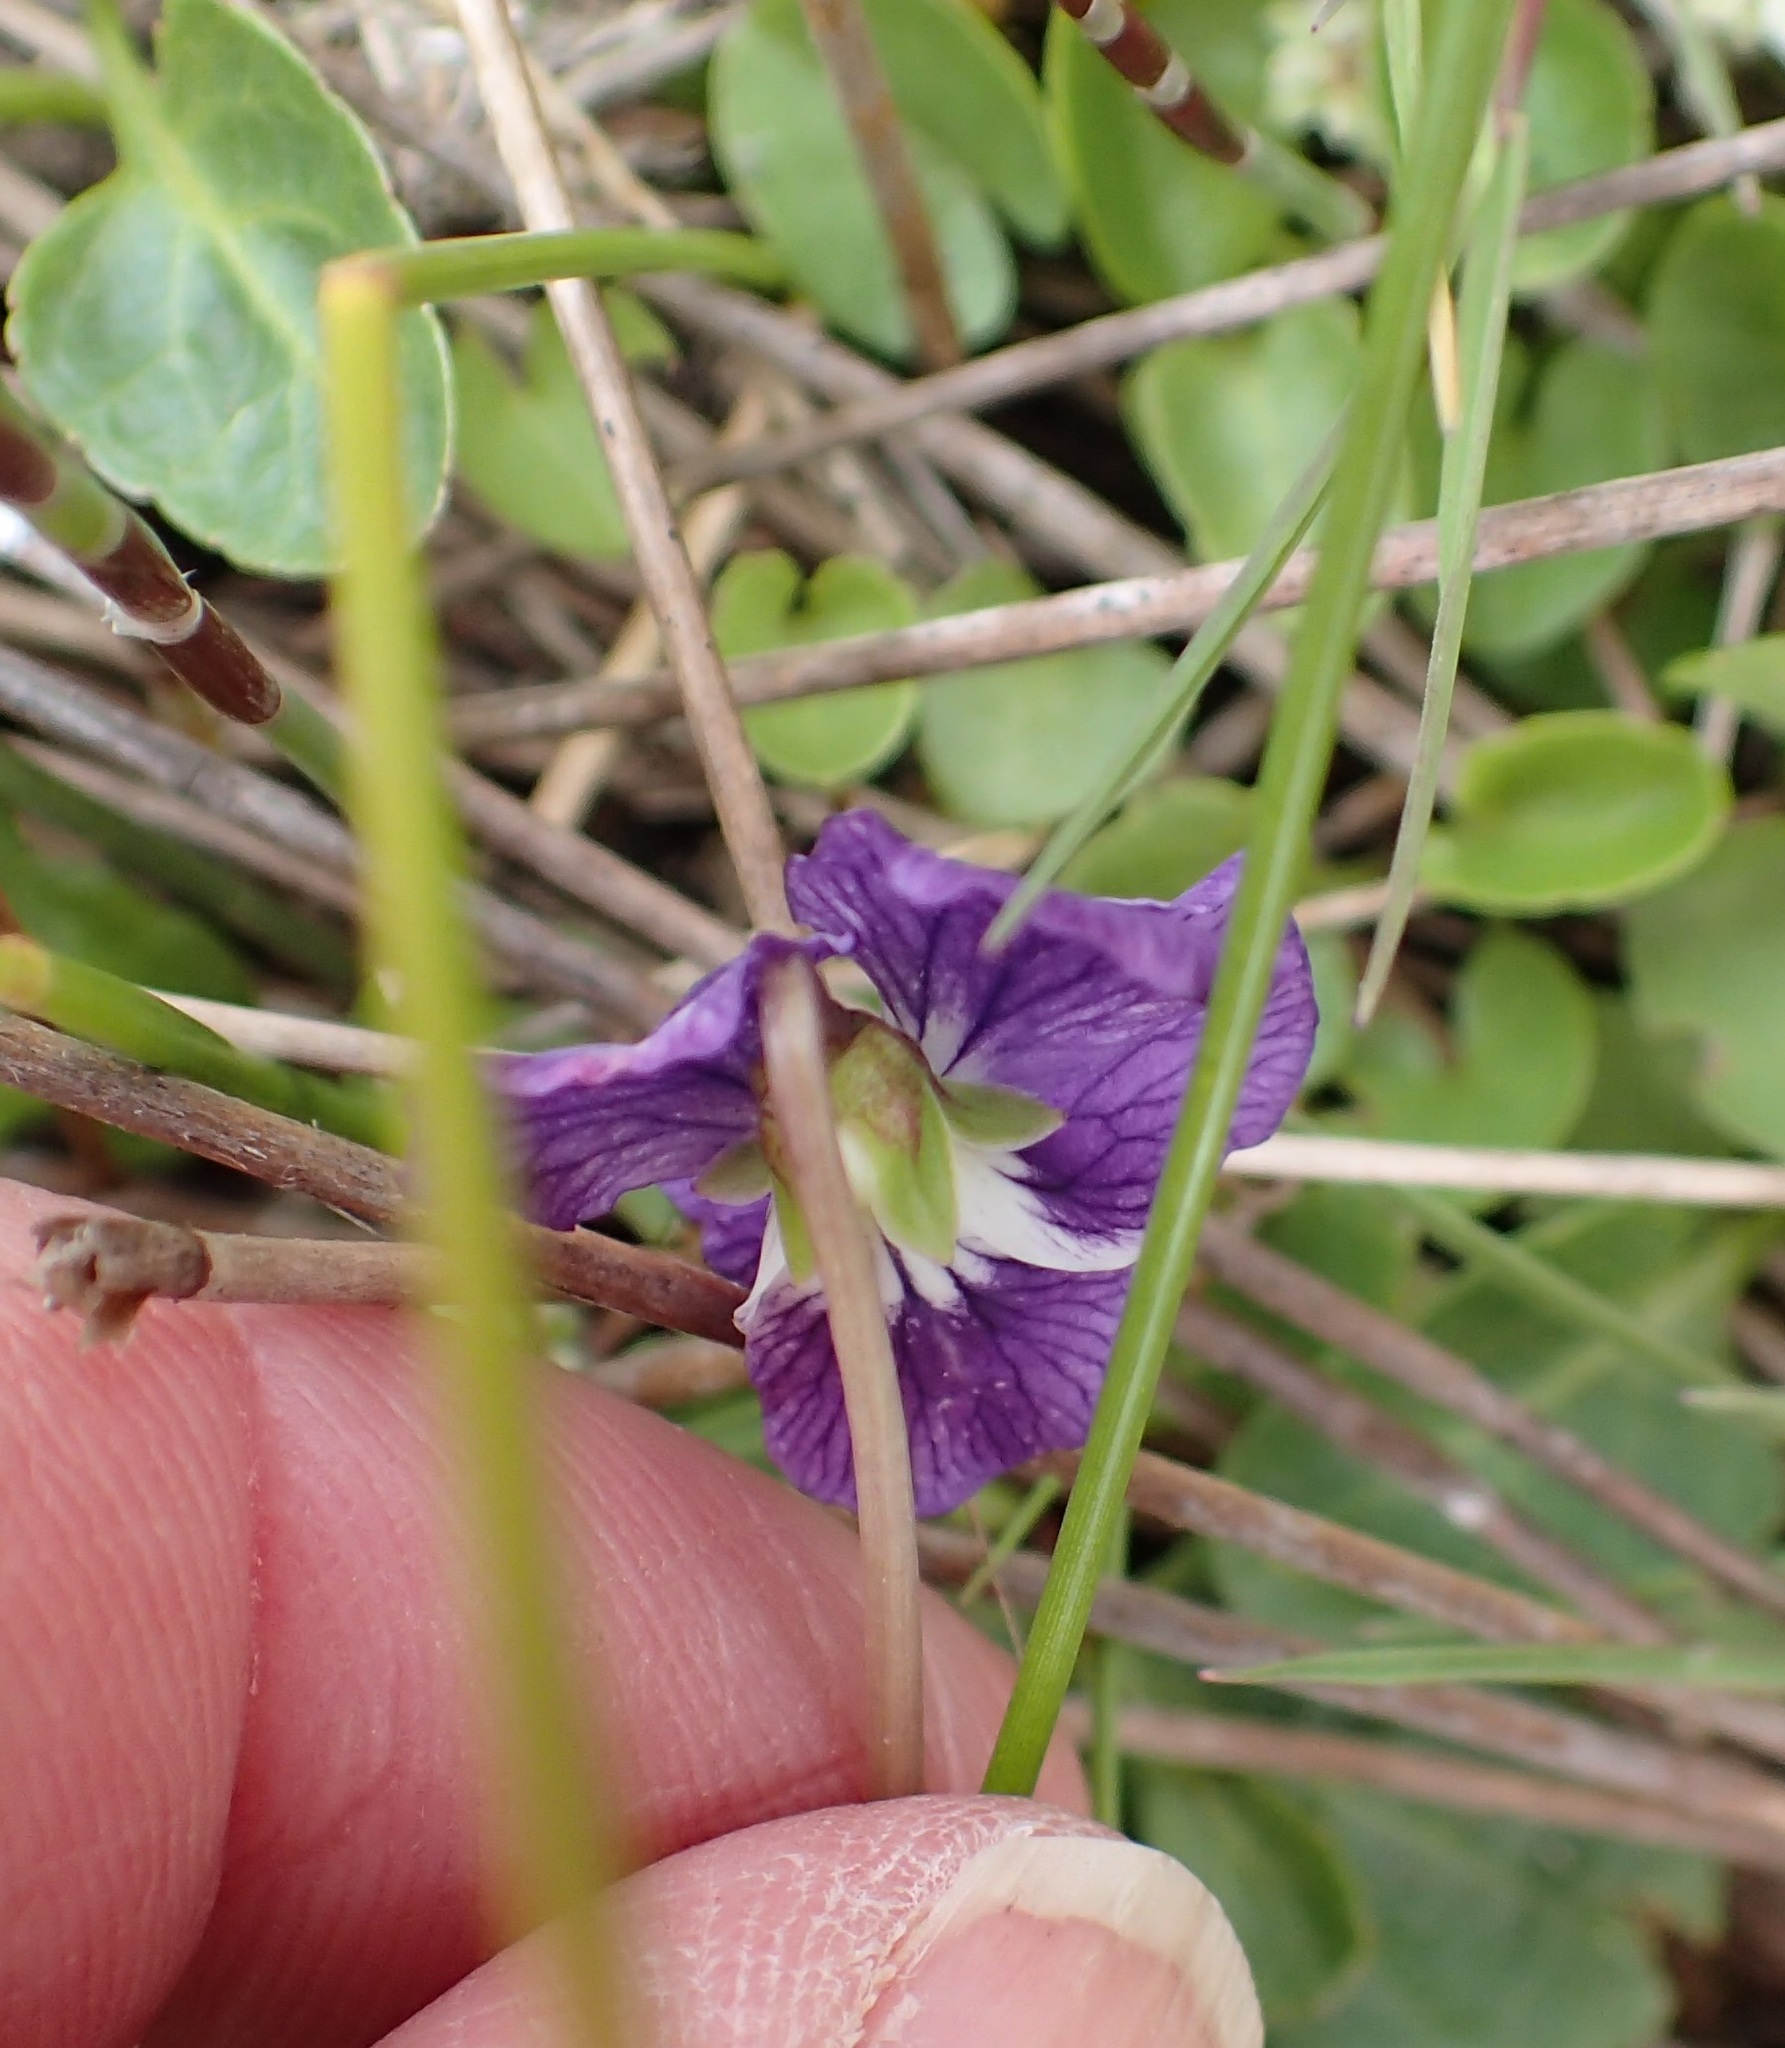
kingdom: Plantae
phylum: Tracheophyta
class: Magnoliopsida
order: Malpighiales
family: Violaceae
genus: Viola
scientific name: Viola betonicifolia
